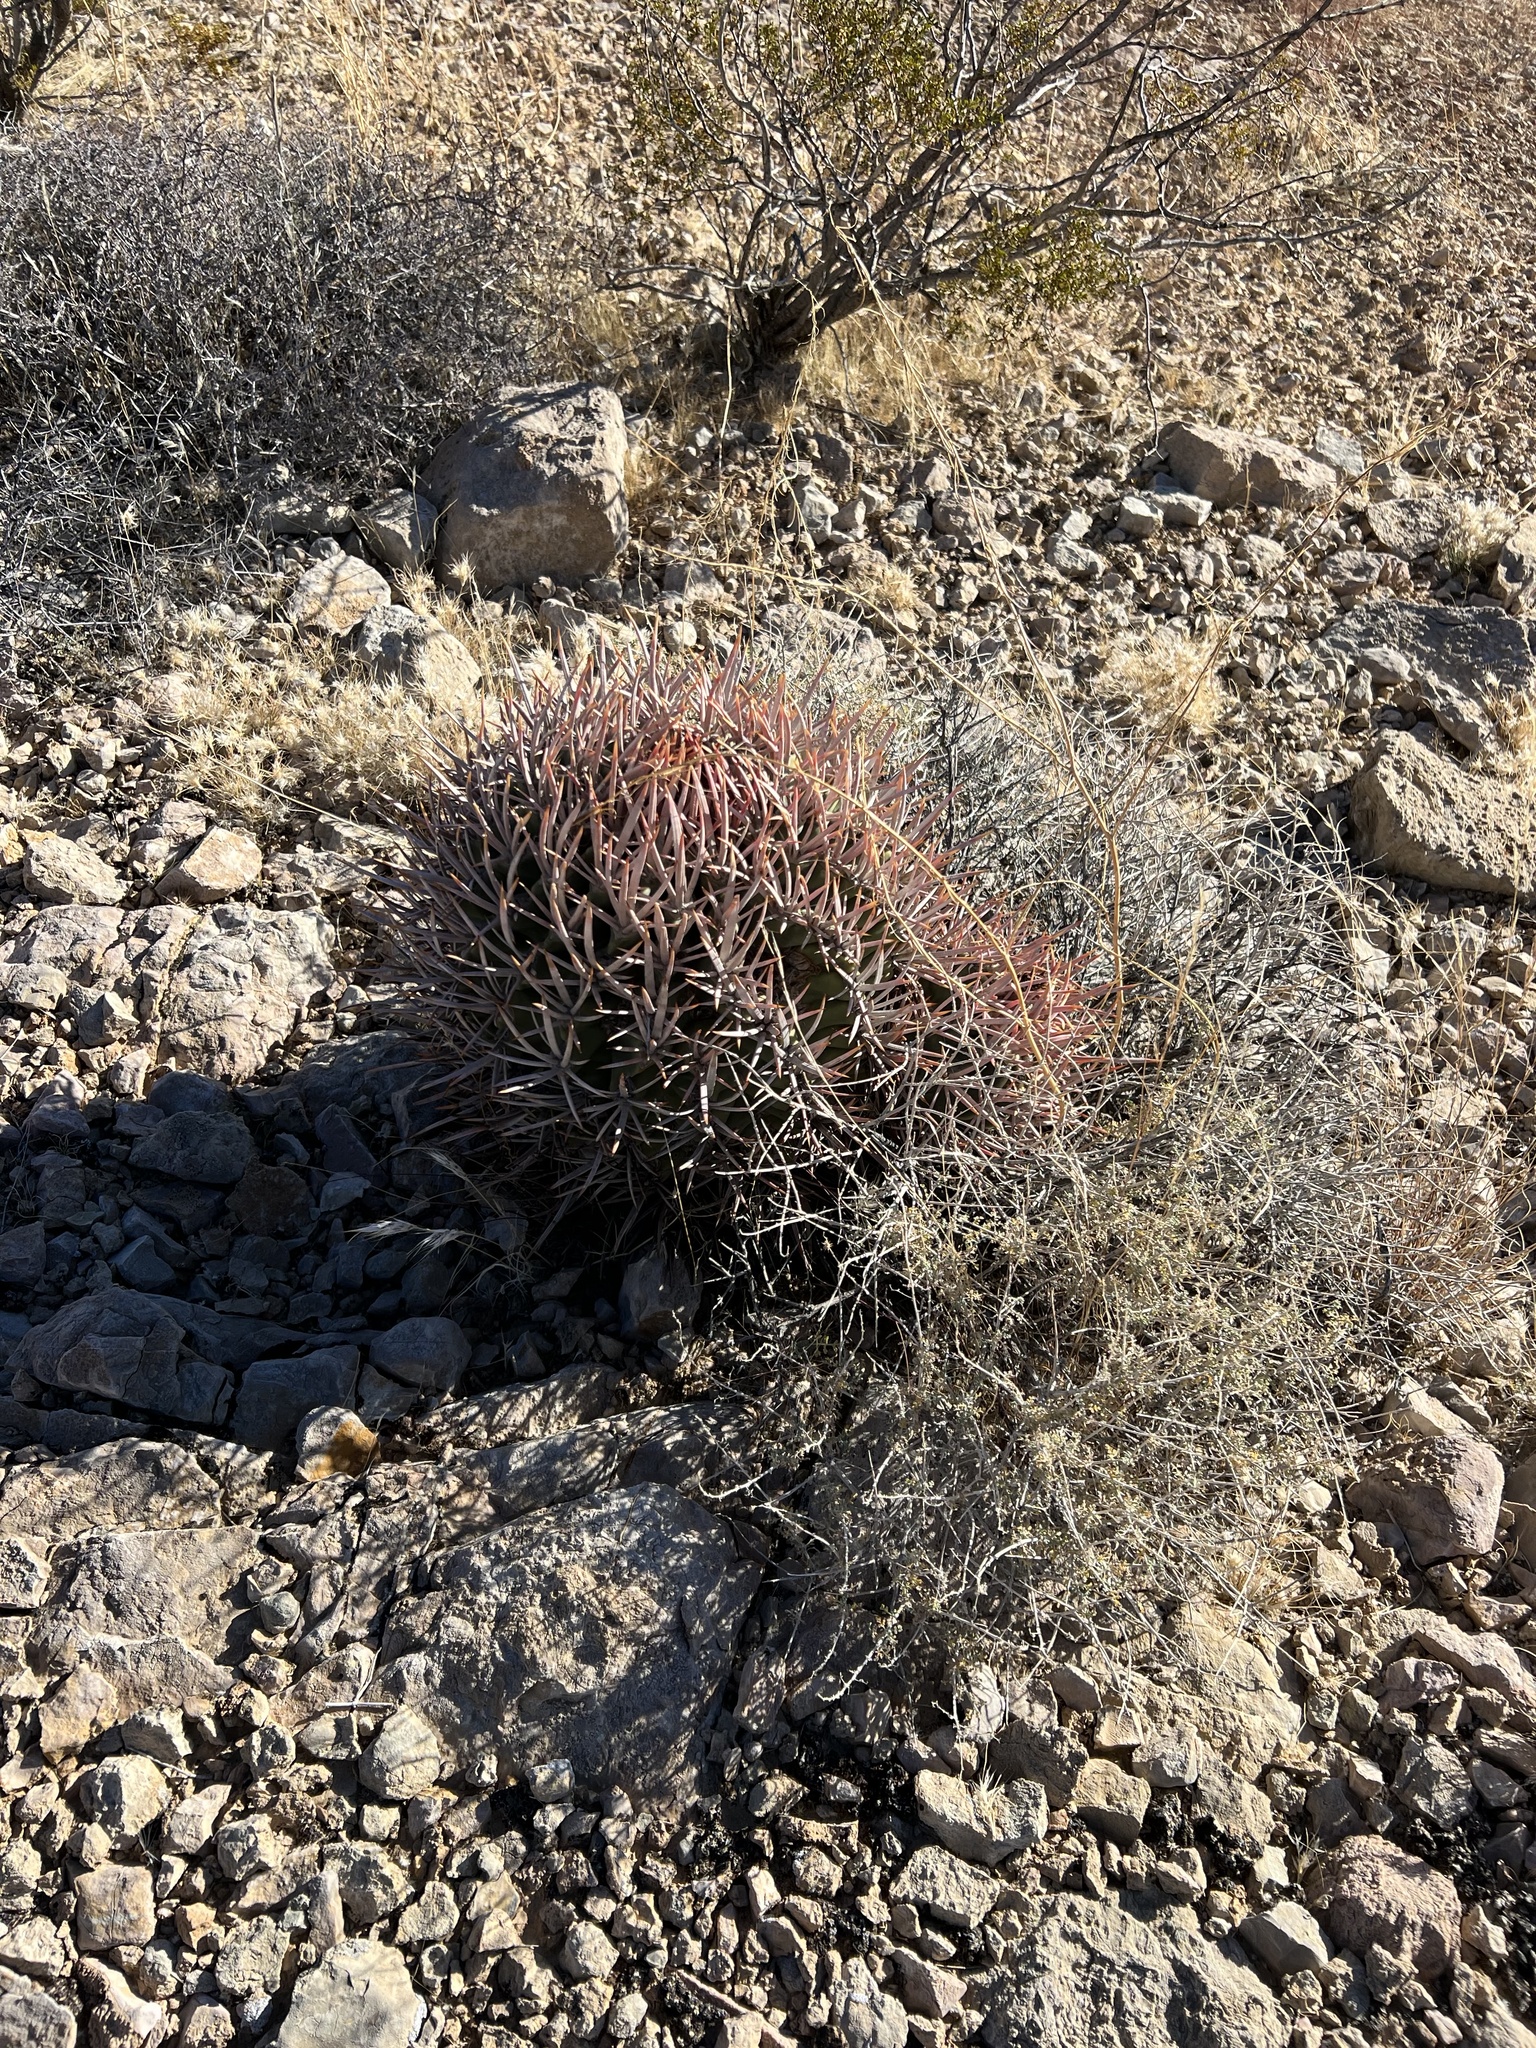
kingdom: Plantae
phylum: Tracheophyta
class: Magnoliopsida
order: Caryophyllales
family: Cactaceae
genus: Echinocactus
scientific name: Echinocactus polycephalus
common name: Cottontop cactus
